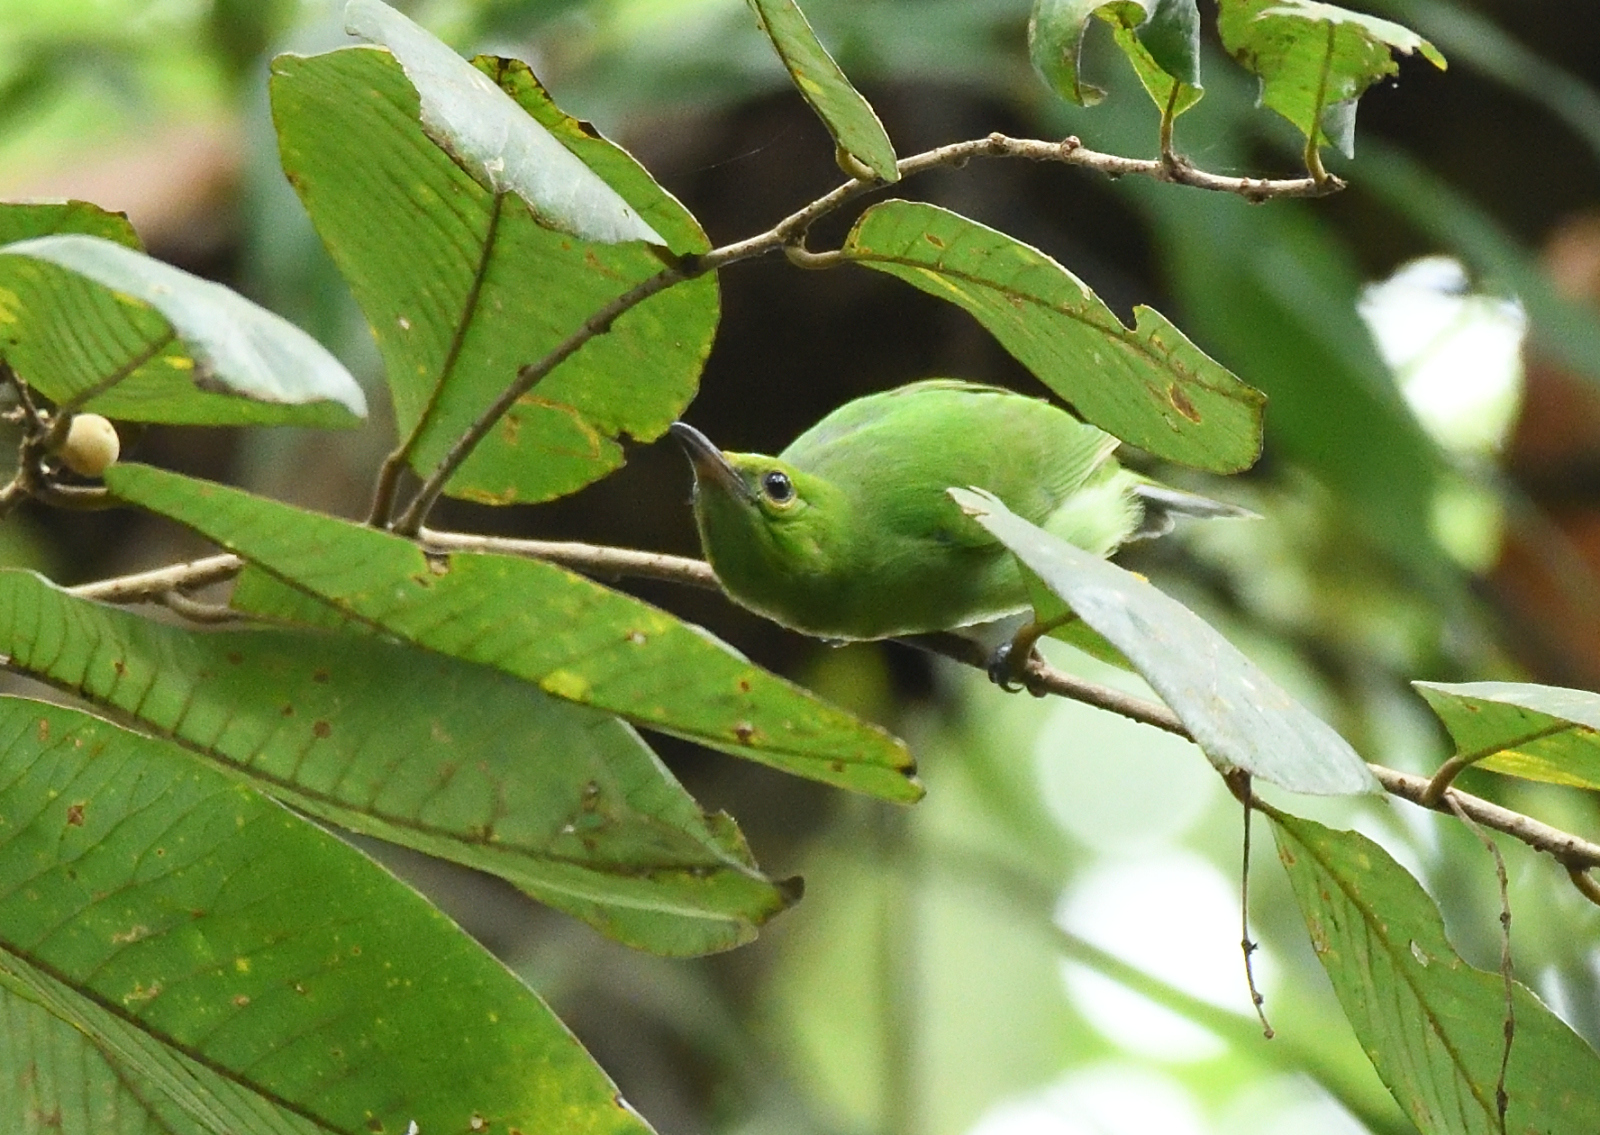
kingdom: Animalia
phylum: Chordata
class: Aves
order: Passeriformes
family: Chloropseidae
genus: Chloropsis
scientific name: Chloropsis jerdoni
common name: Jerdon's leafbird
